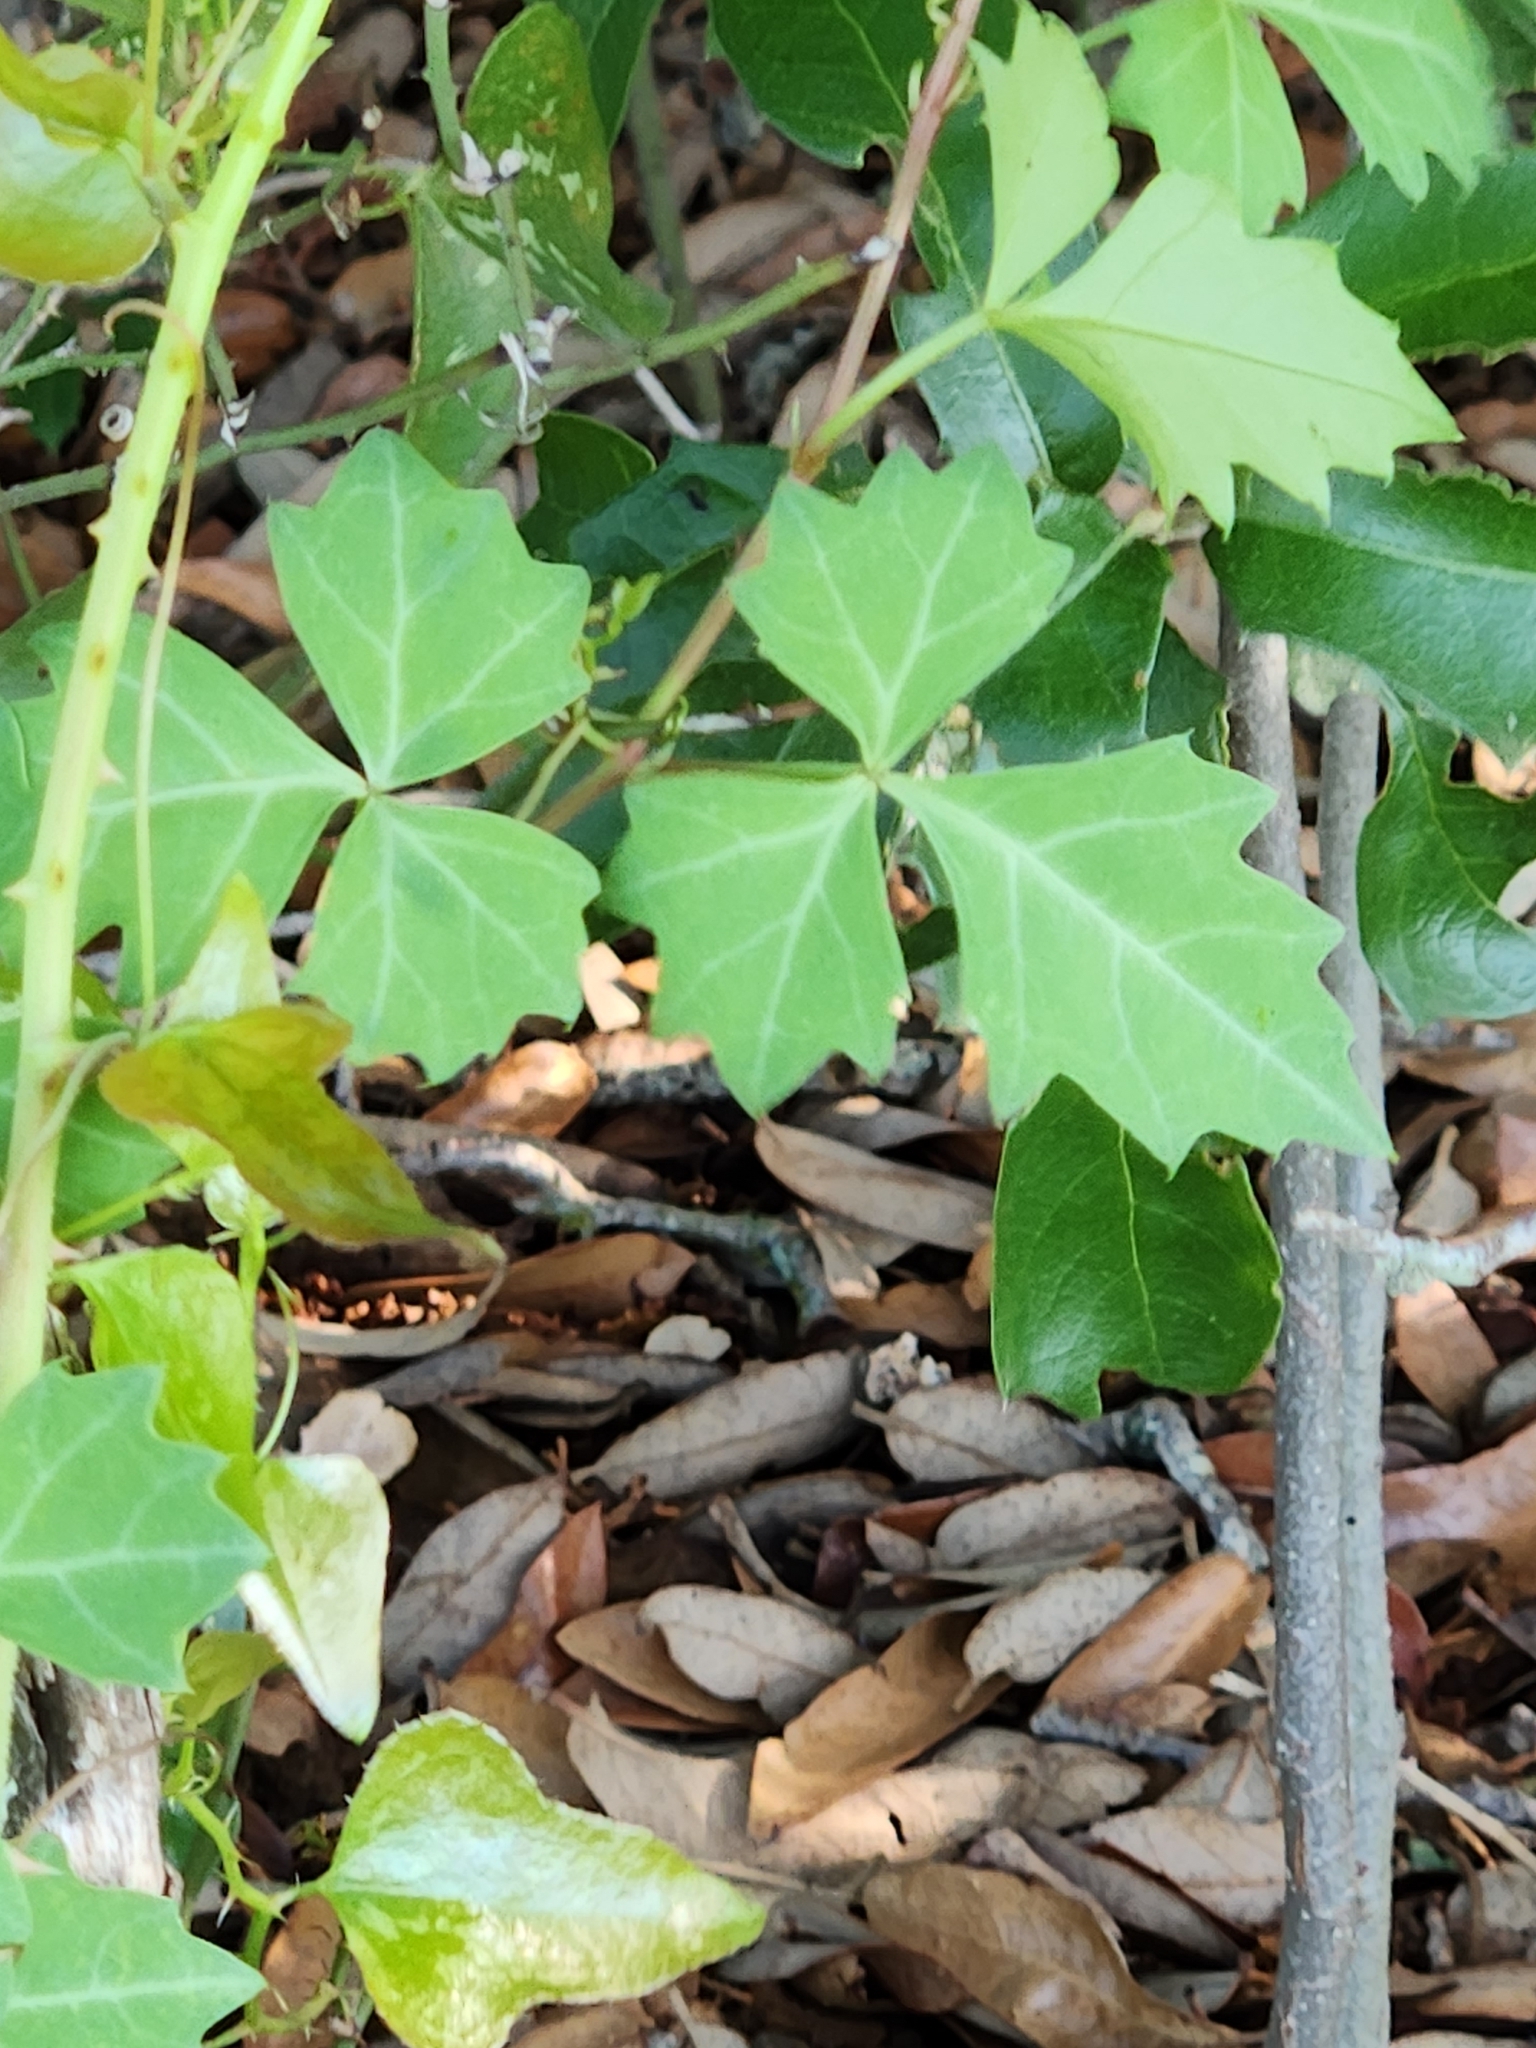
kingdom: Plantae
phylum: Tracheophyta
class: Magnoliopsida
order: Vitales
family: Vitaceae
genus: Cissus
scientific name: Cissus trifoliata
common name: Vine-sorrel
